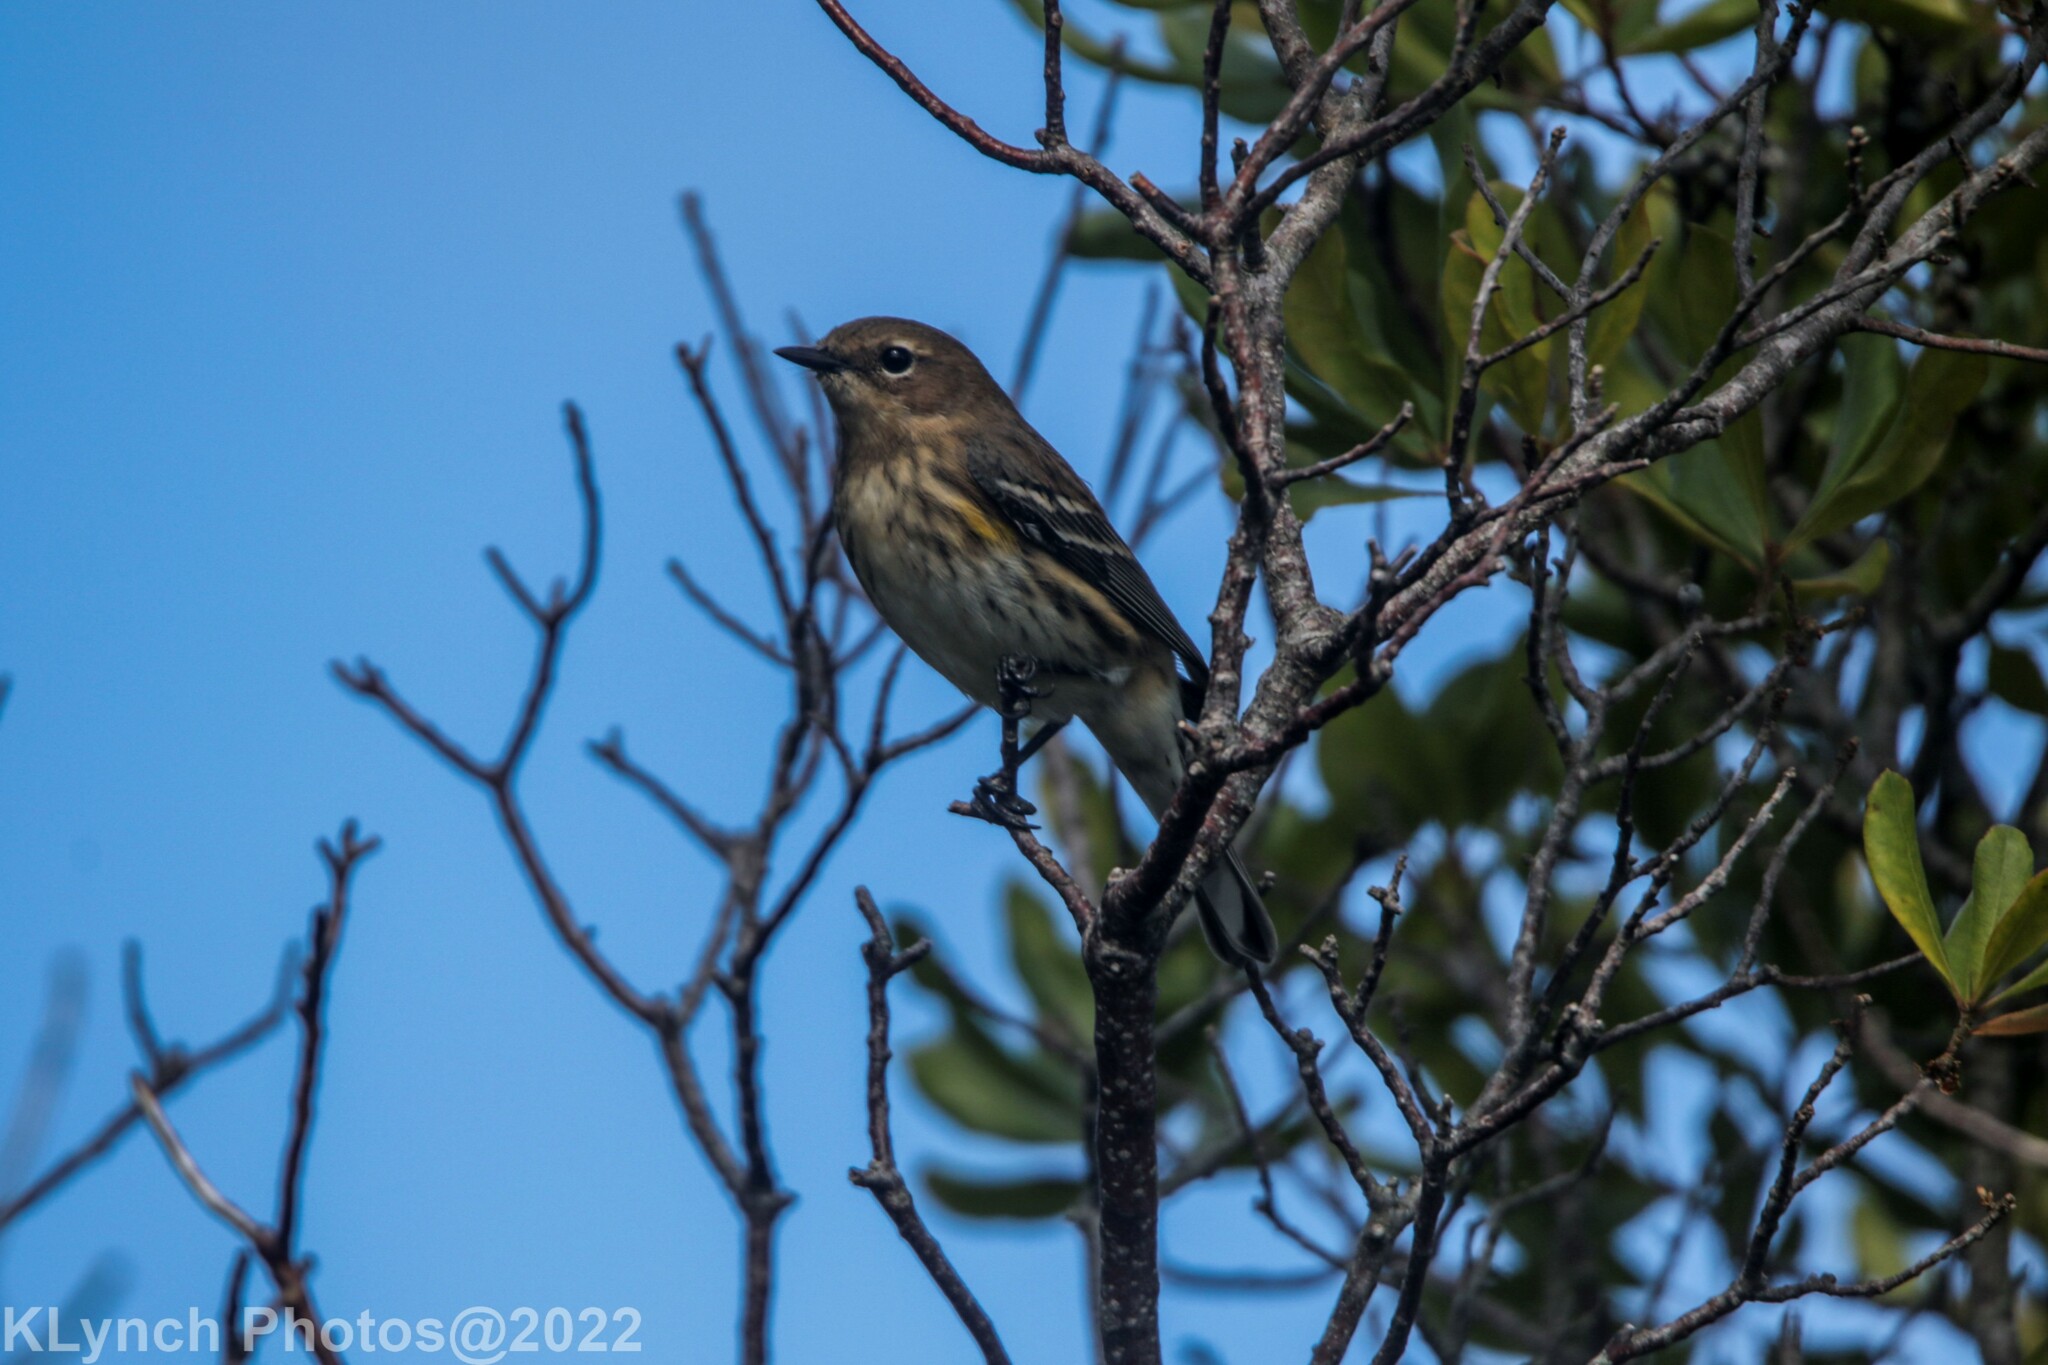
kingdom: Animalia
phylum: Chordata
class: Aves
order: Passeriformes
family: Parulidae
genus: Setophaga
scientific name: Setophaga coronata
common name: Myrtle warbler
